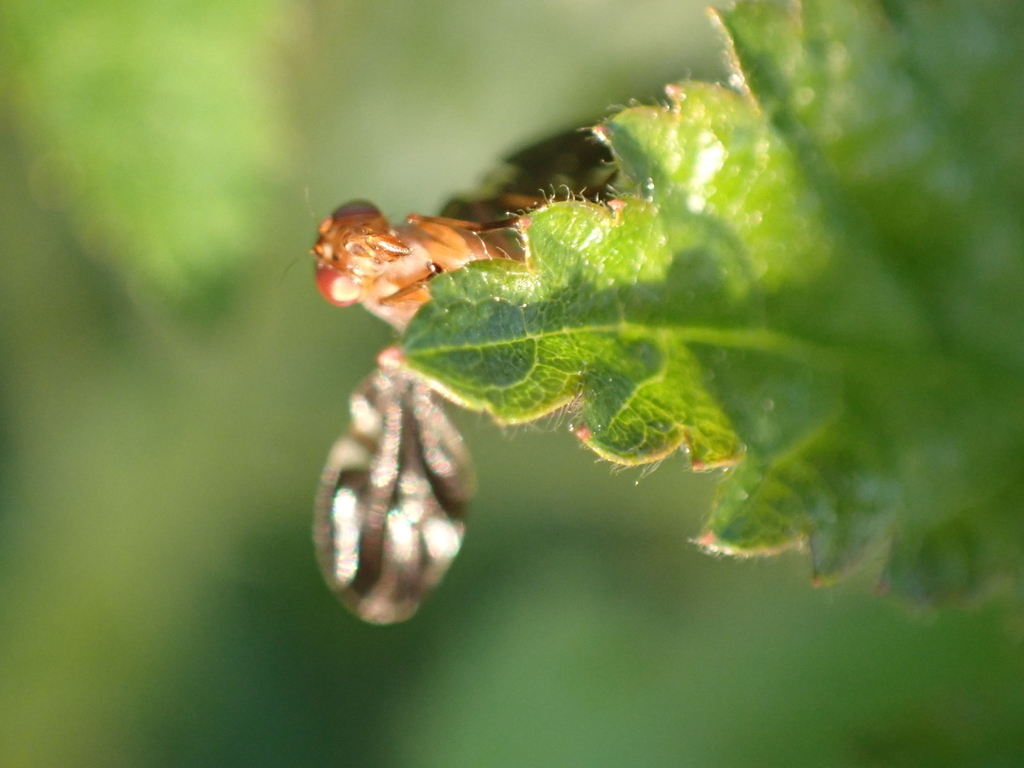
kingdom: Animalia
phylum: Arthropoda
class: Insecta
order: Diptera
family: Ulidiidae
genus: Delphinia
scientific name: Delphinia picta
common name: Common picture-winged fly
